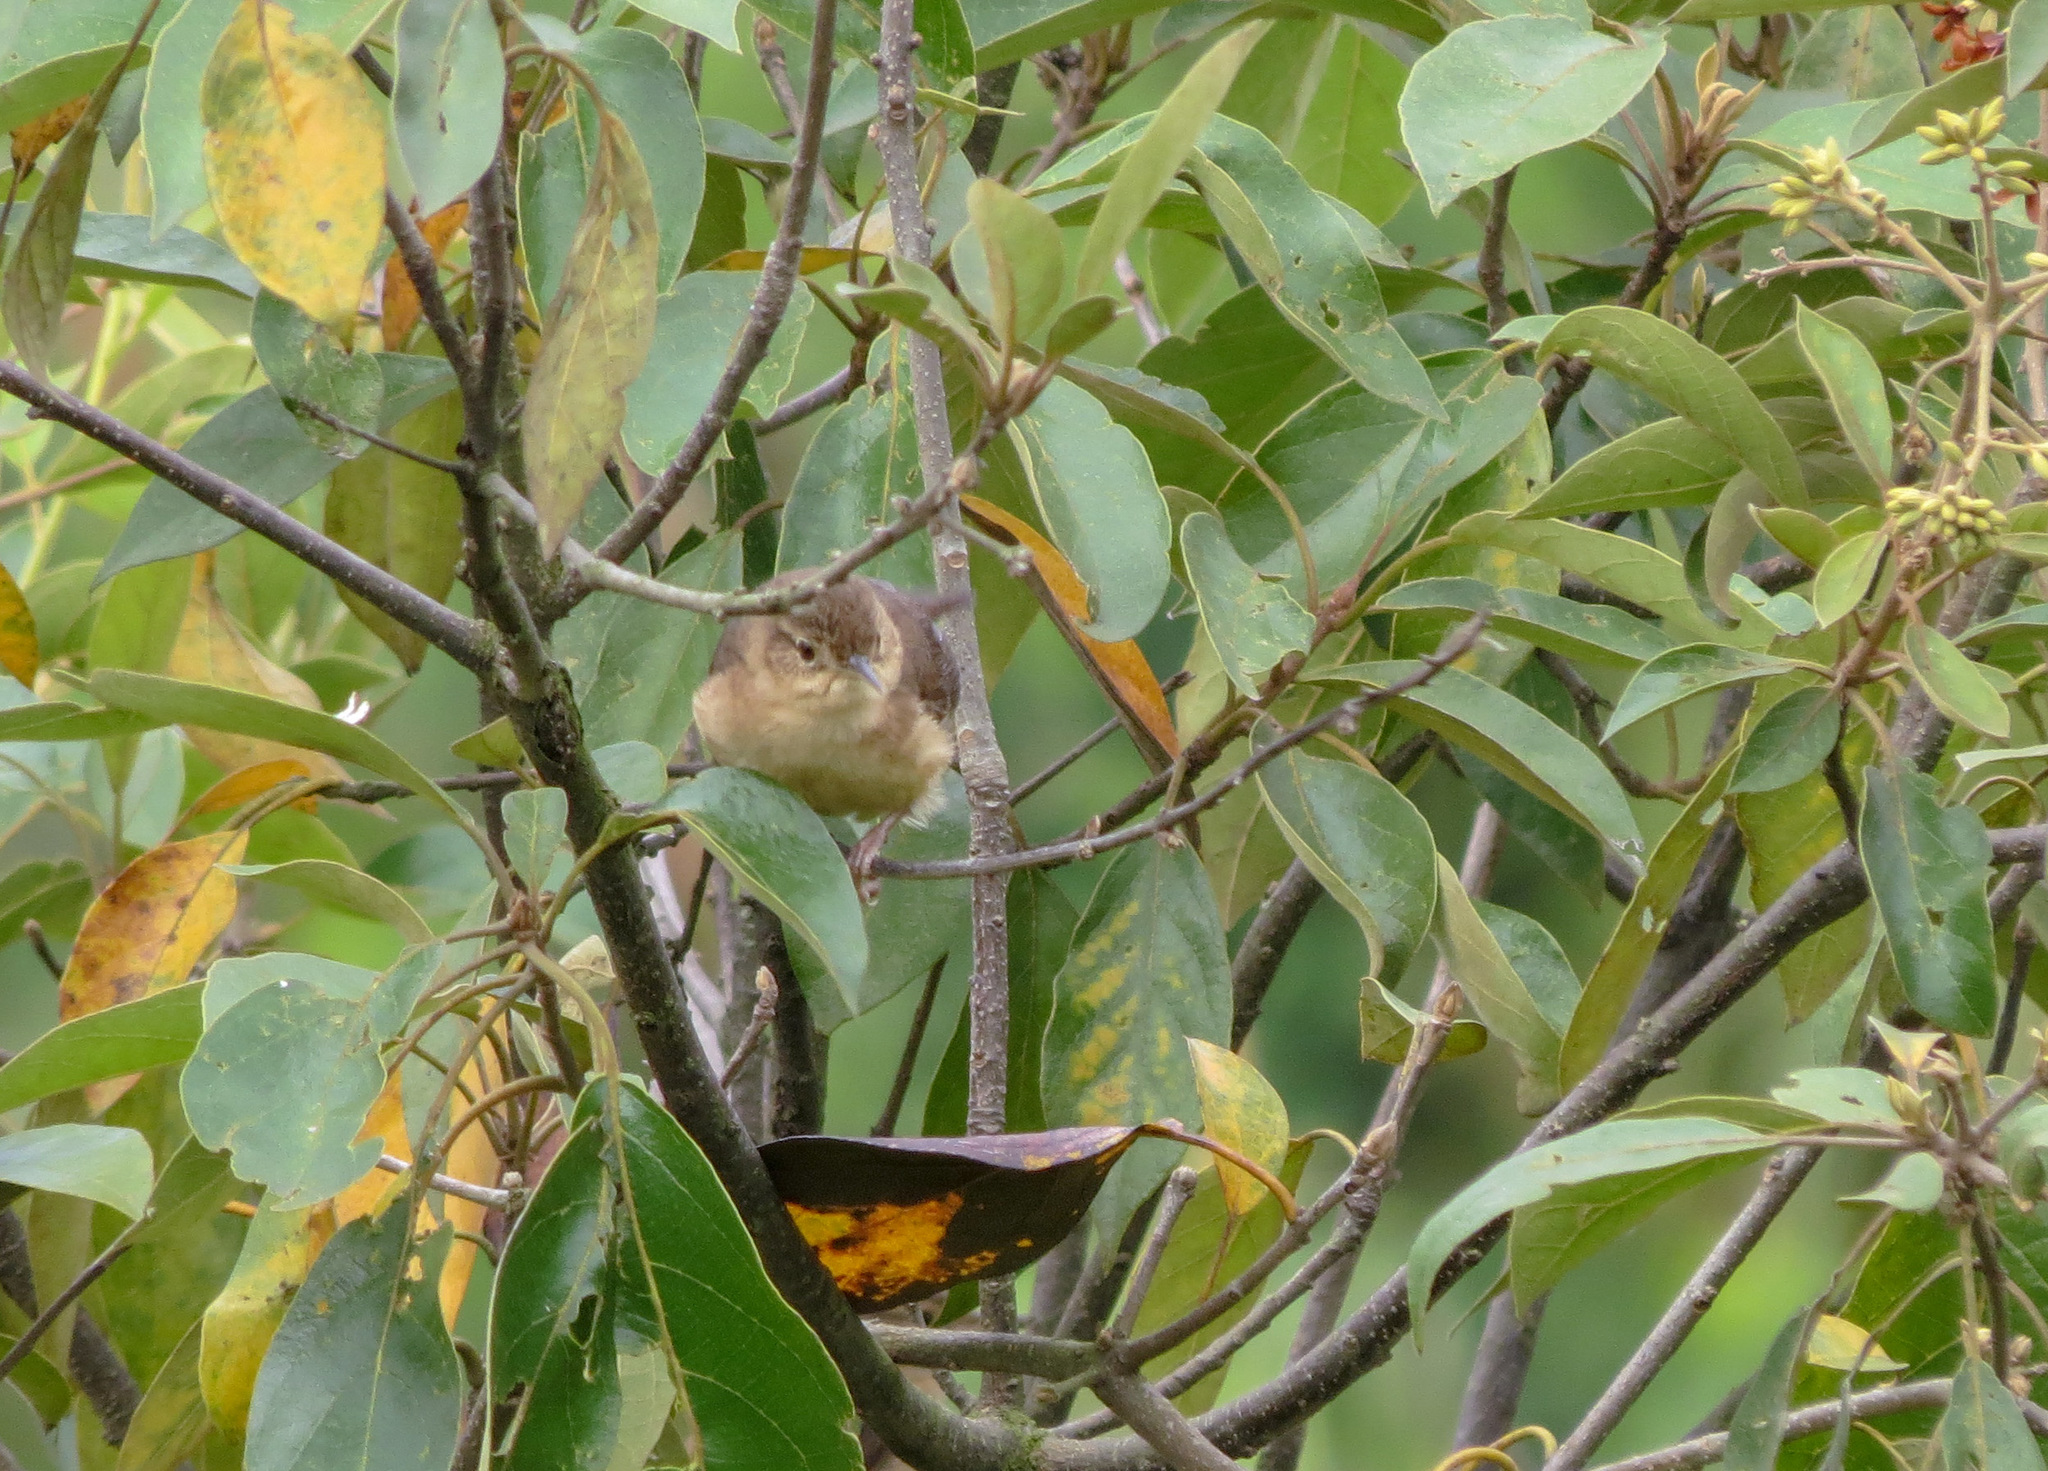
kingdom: Animalia
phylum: Chordata
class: Aves
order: Passeriformes
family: Troglodytidae
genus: Troglodytes
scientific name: Troglodytes aedon
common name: House wren
